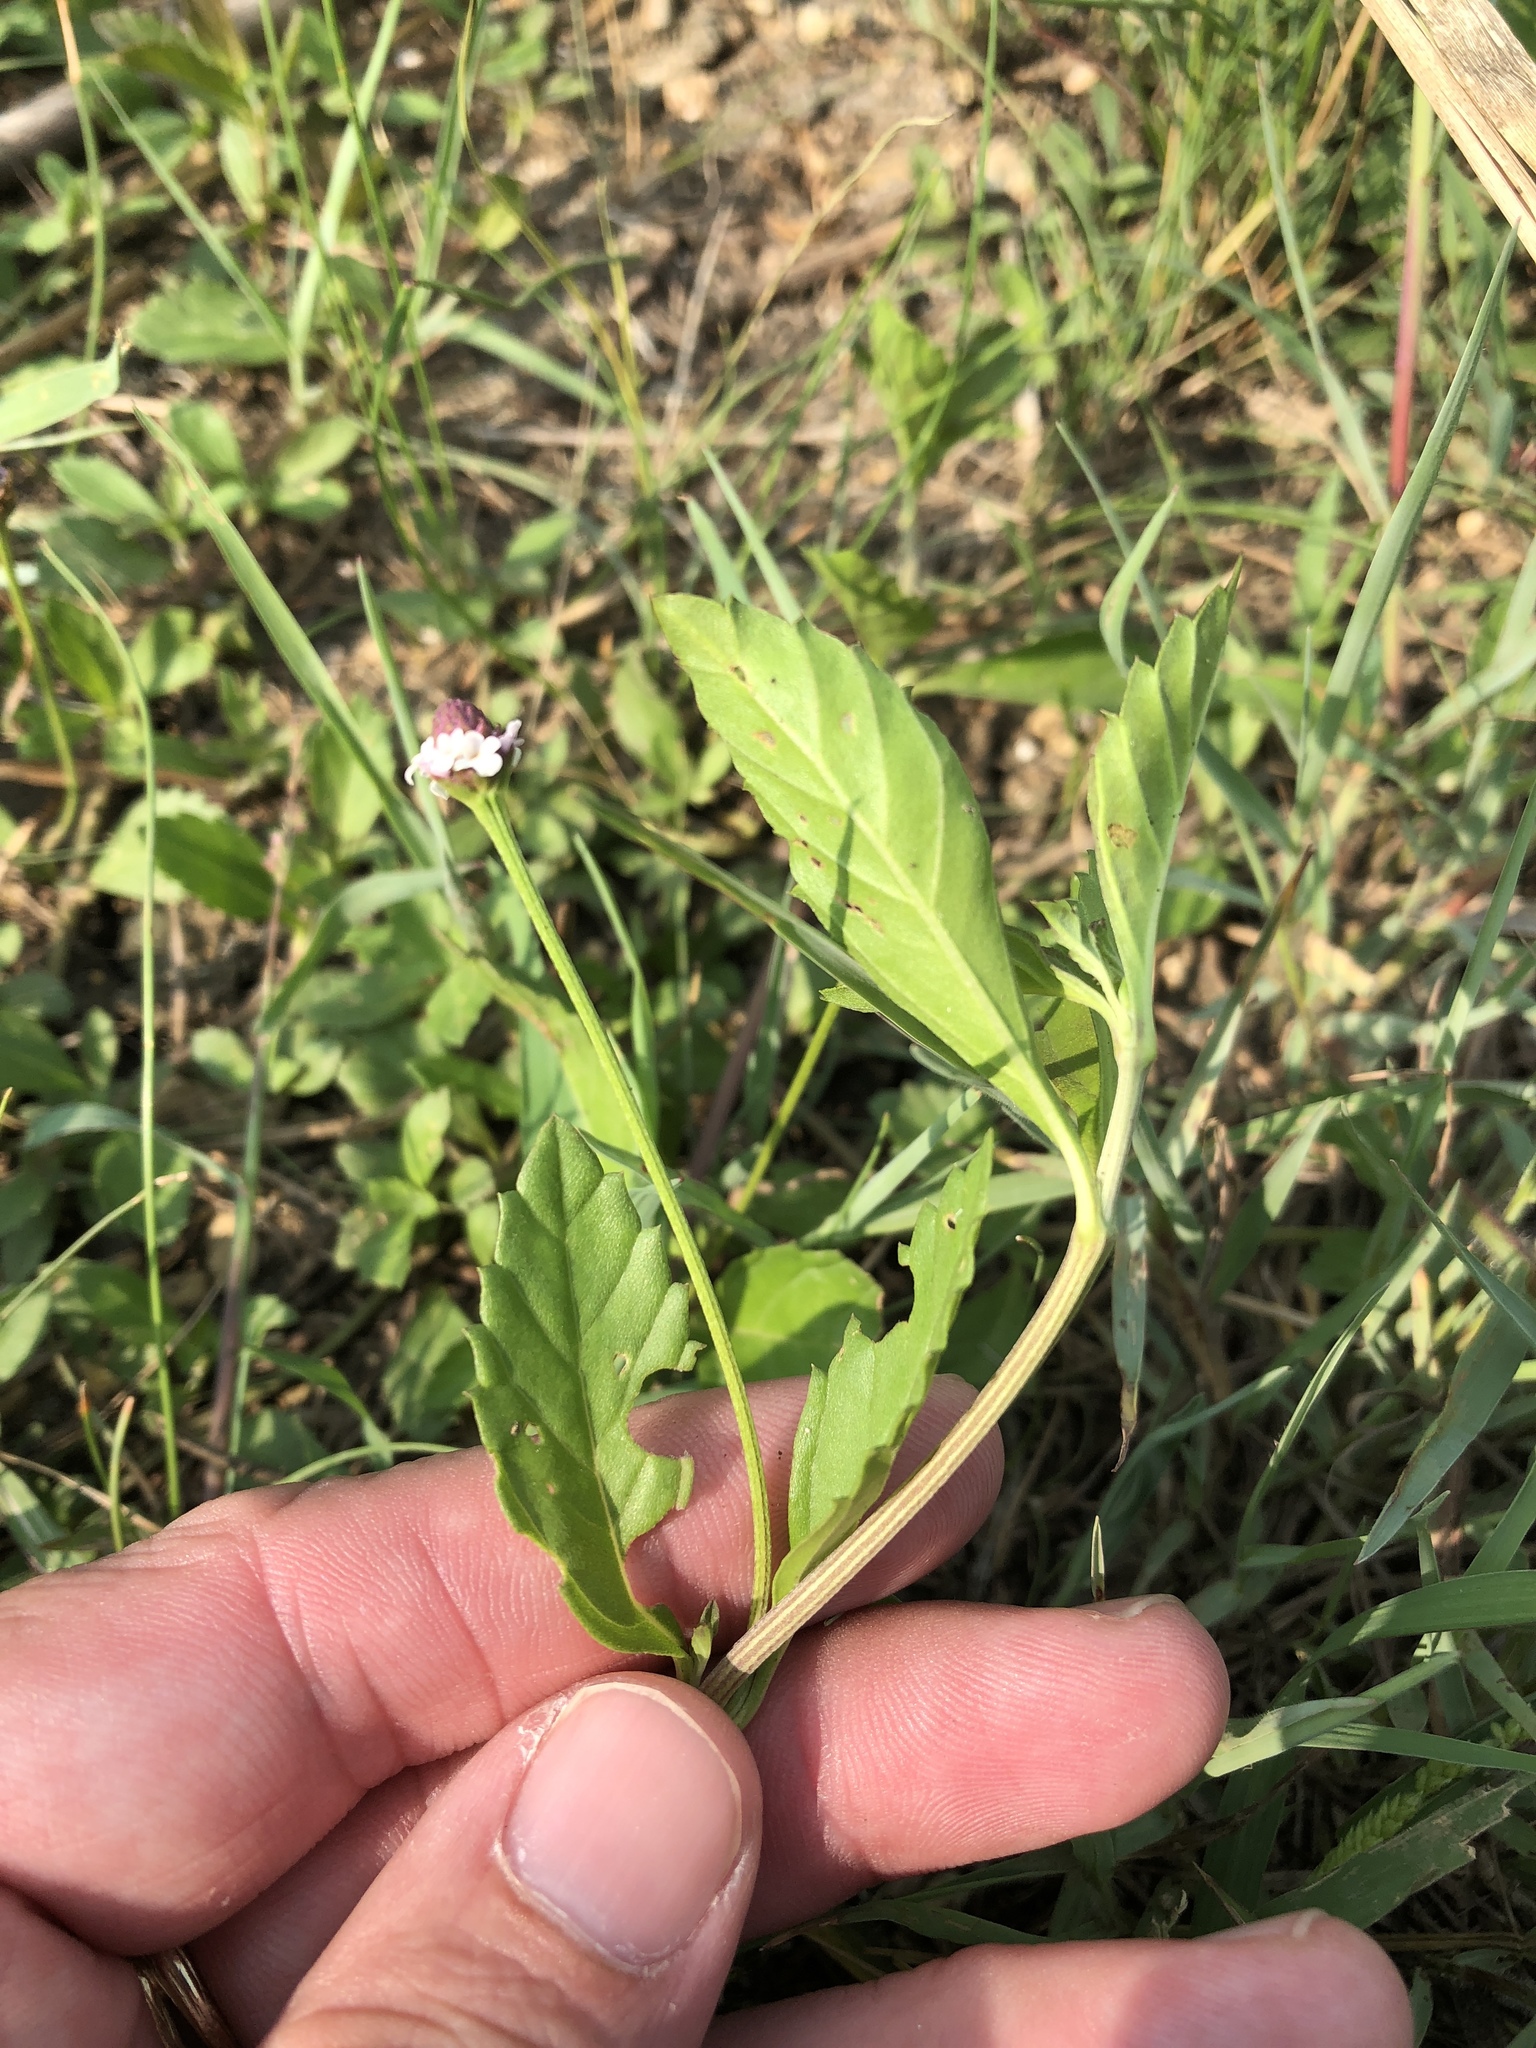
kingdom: Plantae
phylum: Tracheophyta
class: Magnoliopsida
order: Lamiales
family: Verbenaceae
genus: Phyla
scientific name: Phyla lanceolata
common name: Northern fogfruit
